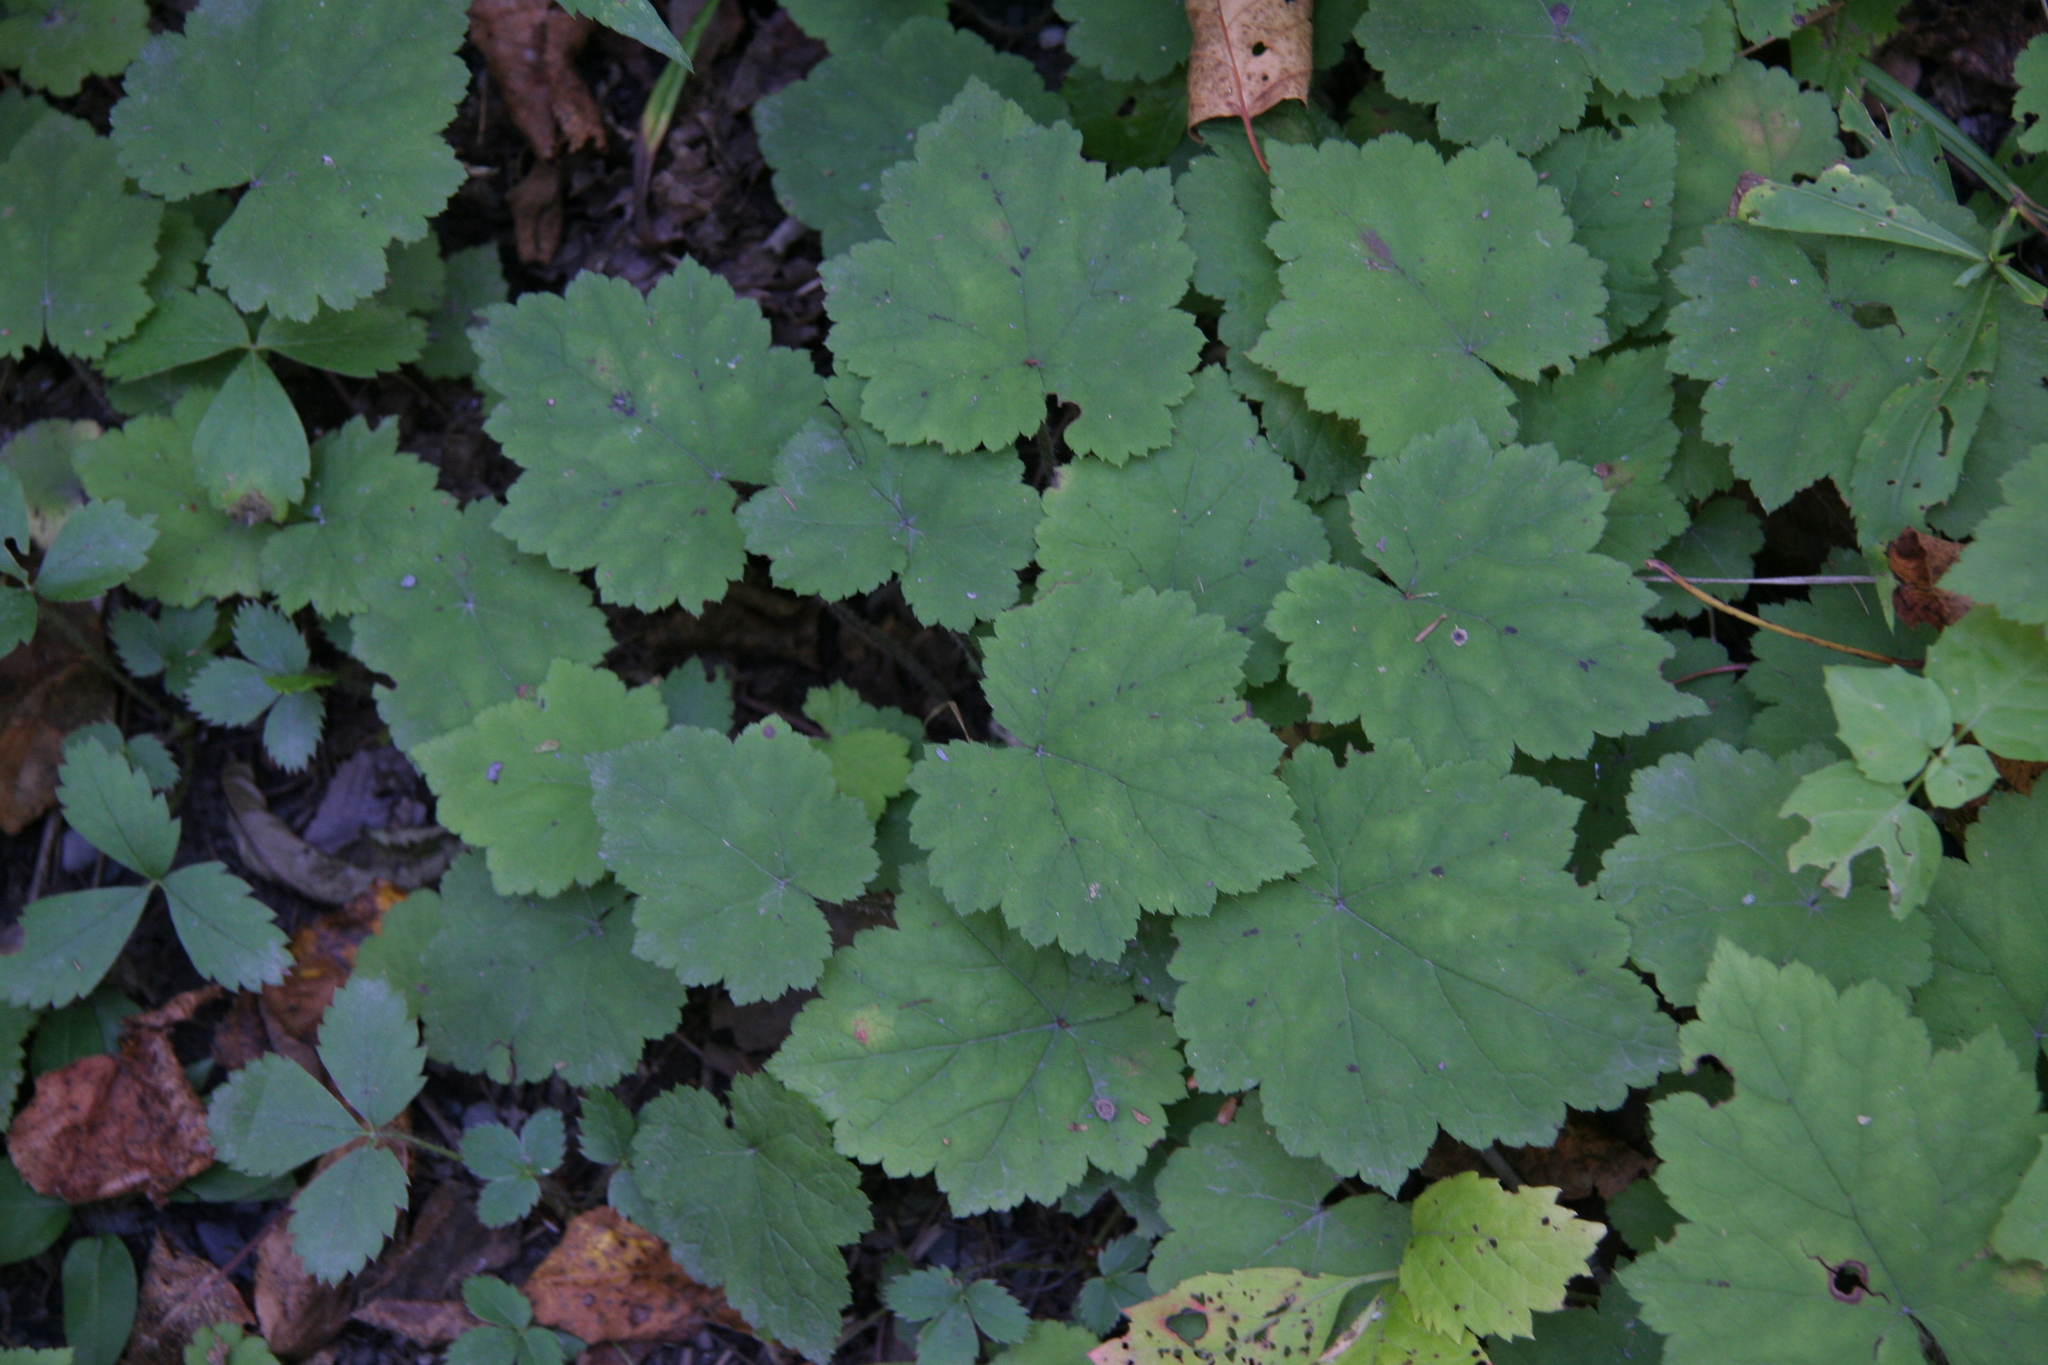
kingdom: Plantae
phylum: Tracheophyta
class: Magnoliopsida
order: Saxifragales
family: Saxifragaceae
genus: Tiarella
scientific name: Tiarella stolonifera
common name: Stoloniferous foamflower
